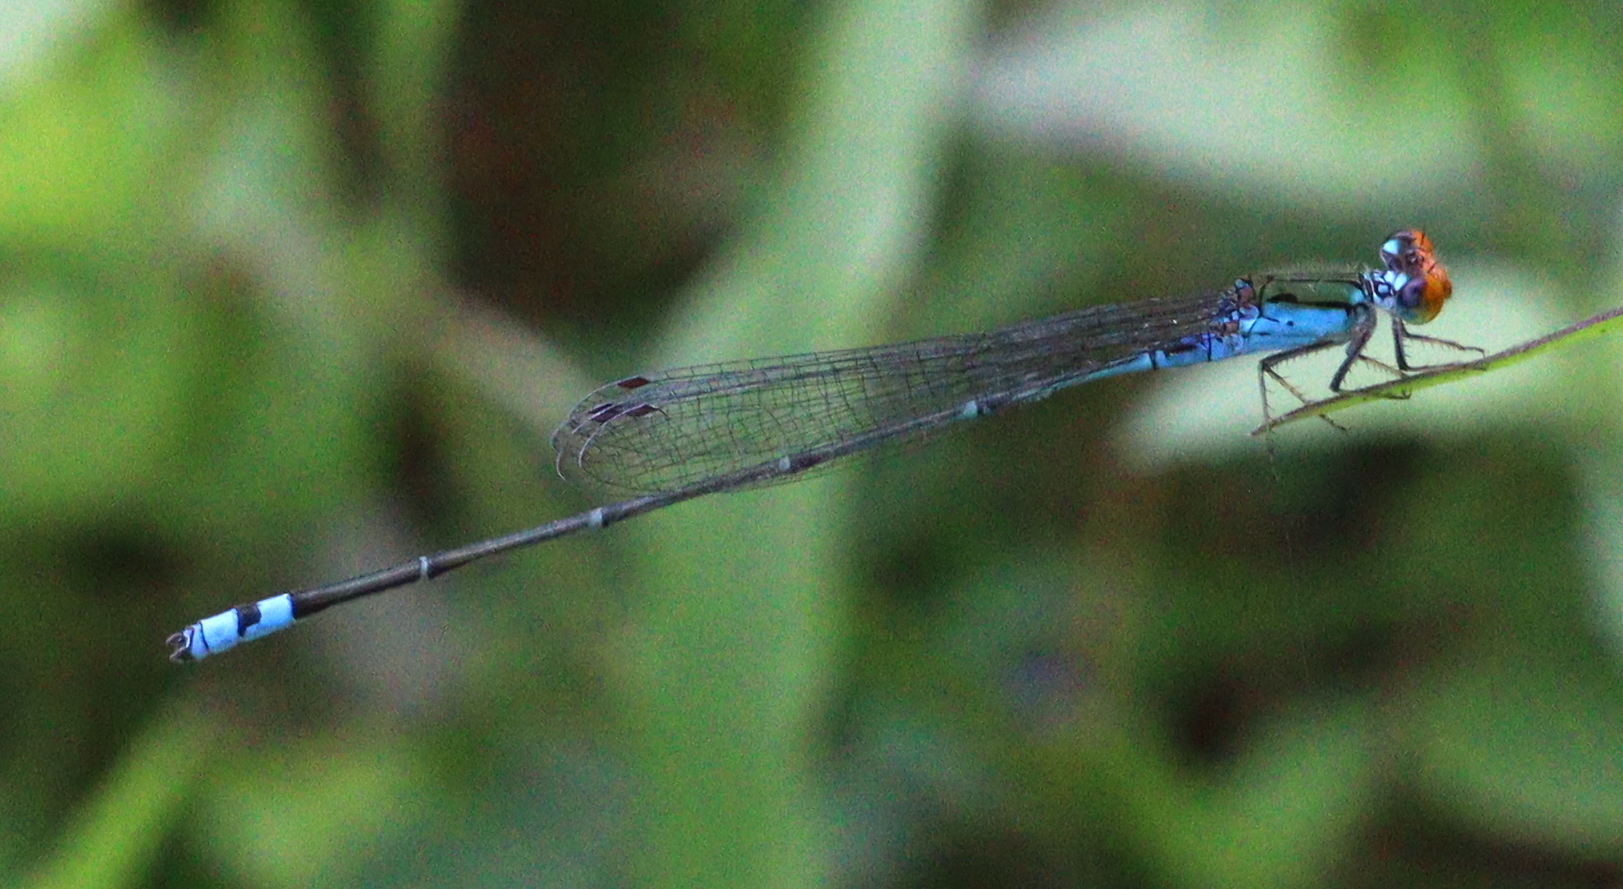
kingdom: Animalia
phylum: Arthropoda
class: Insecta
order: Odonata
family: Coenagrionidae
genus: Pseudagrion
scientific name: Pseudagrion rubriceps
